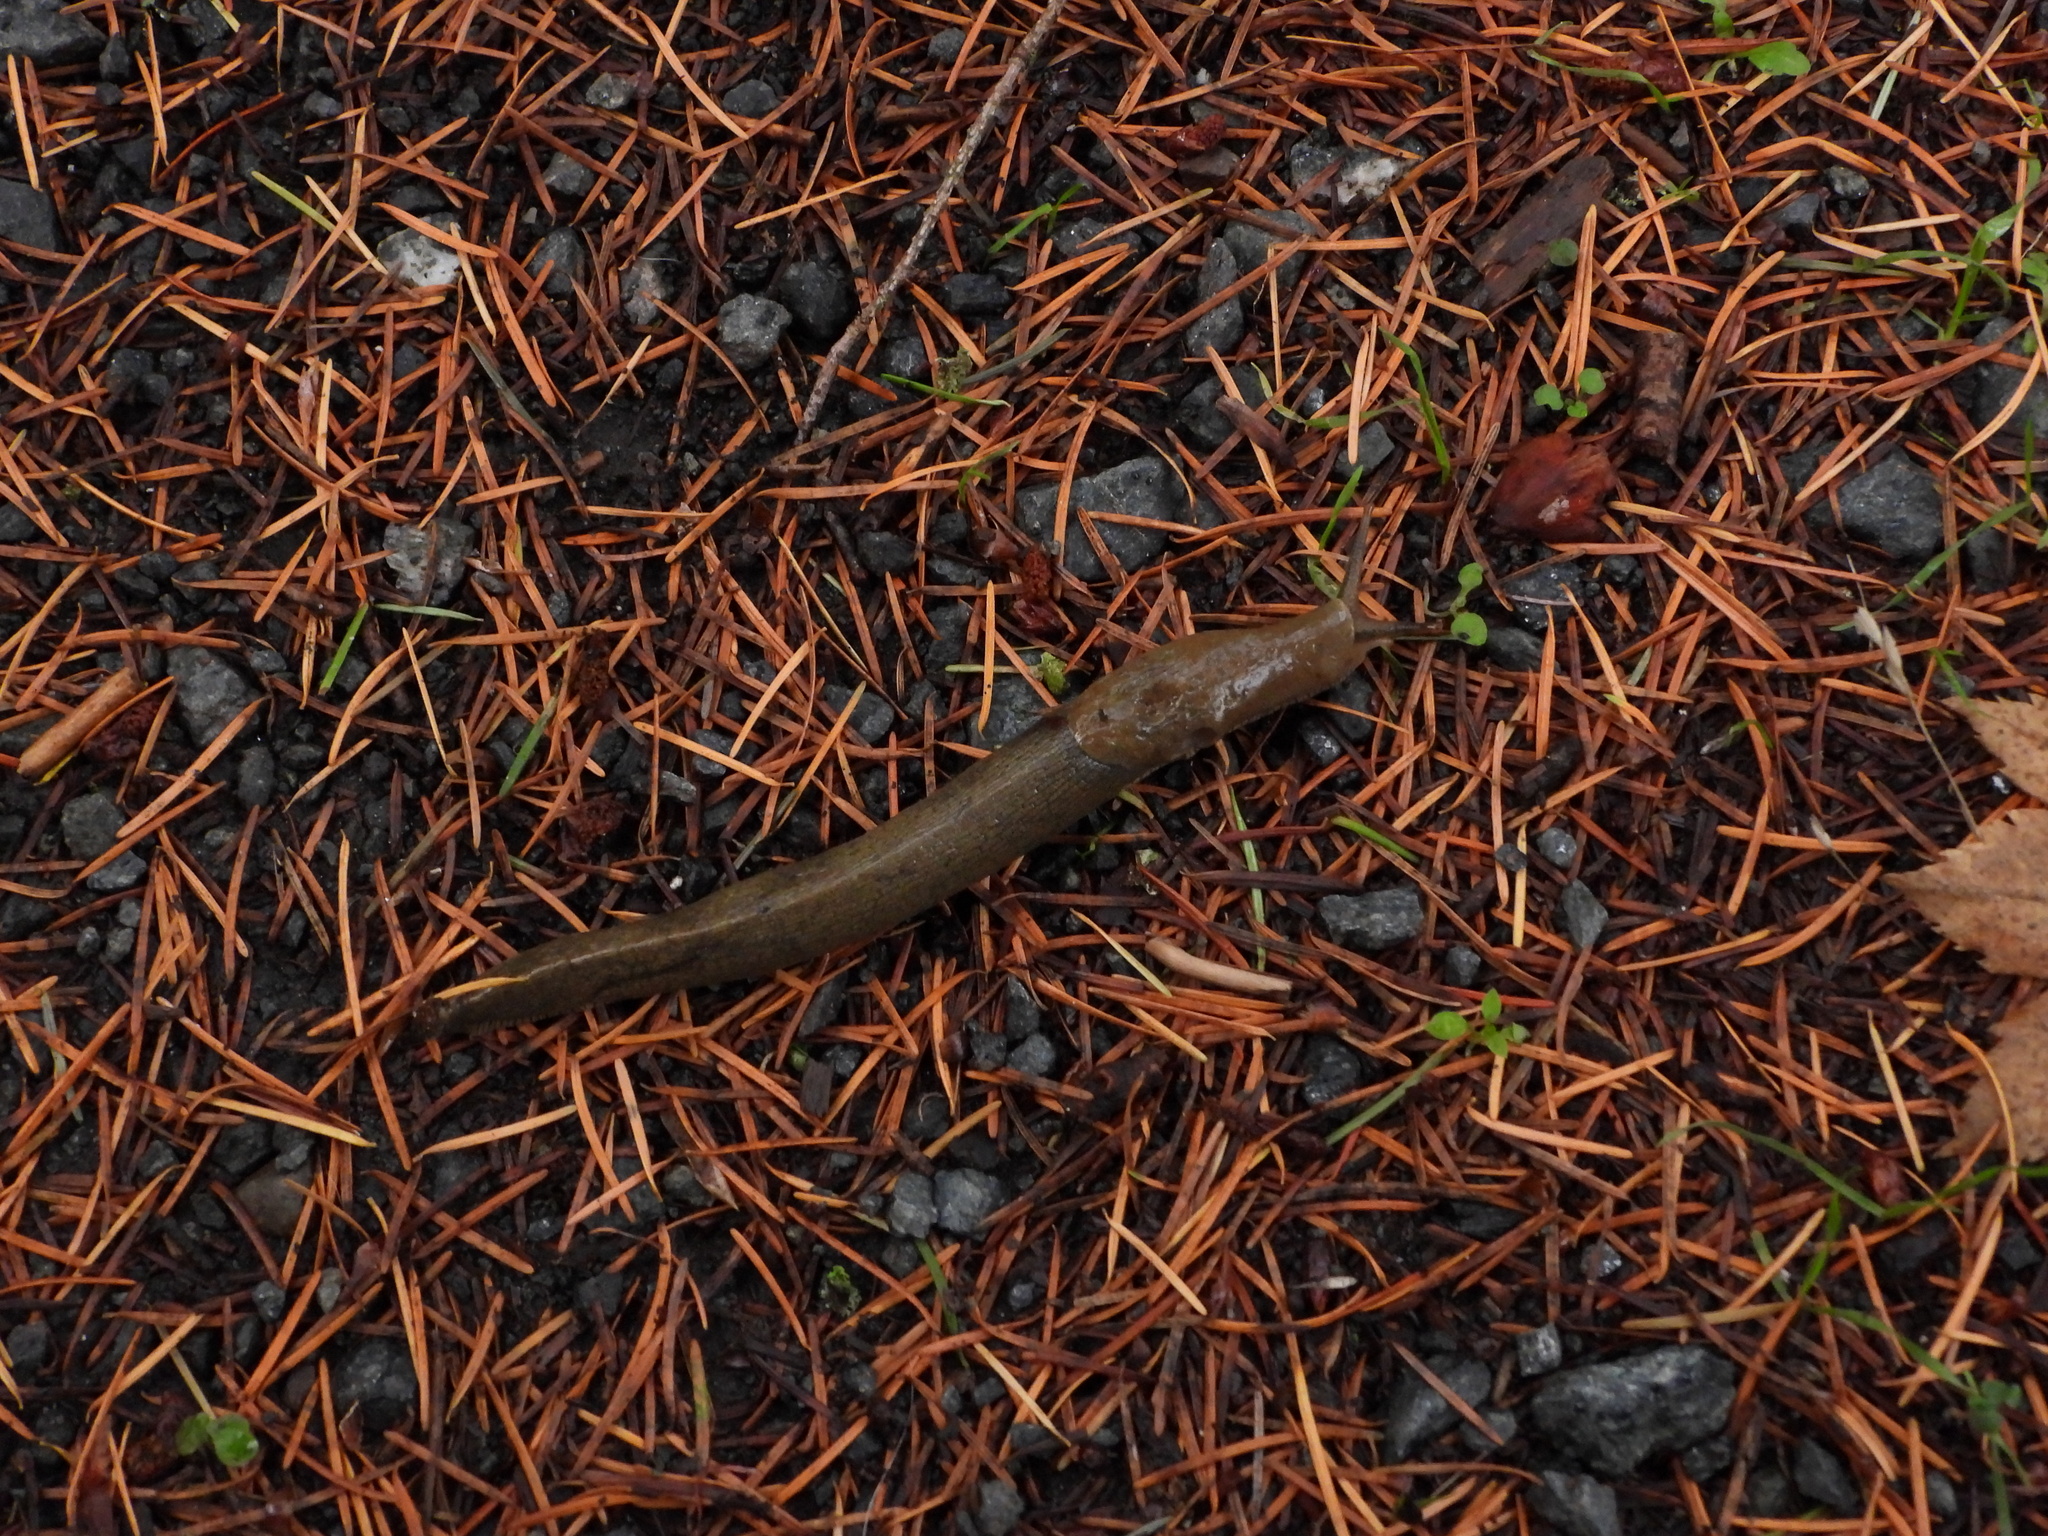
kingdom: Animalia
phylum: Mollusca
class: Gastropoda
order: Stylommatophora
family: Ariolimacidae
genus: Ariolimax
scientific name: Ariolimax columbianus
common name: Pacific banana slug
